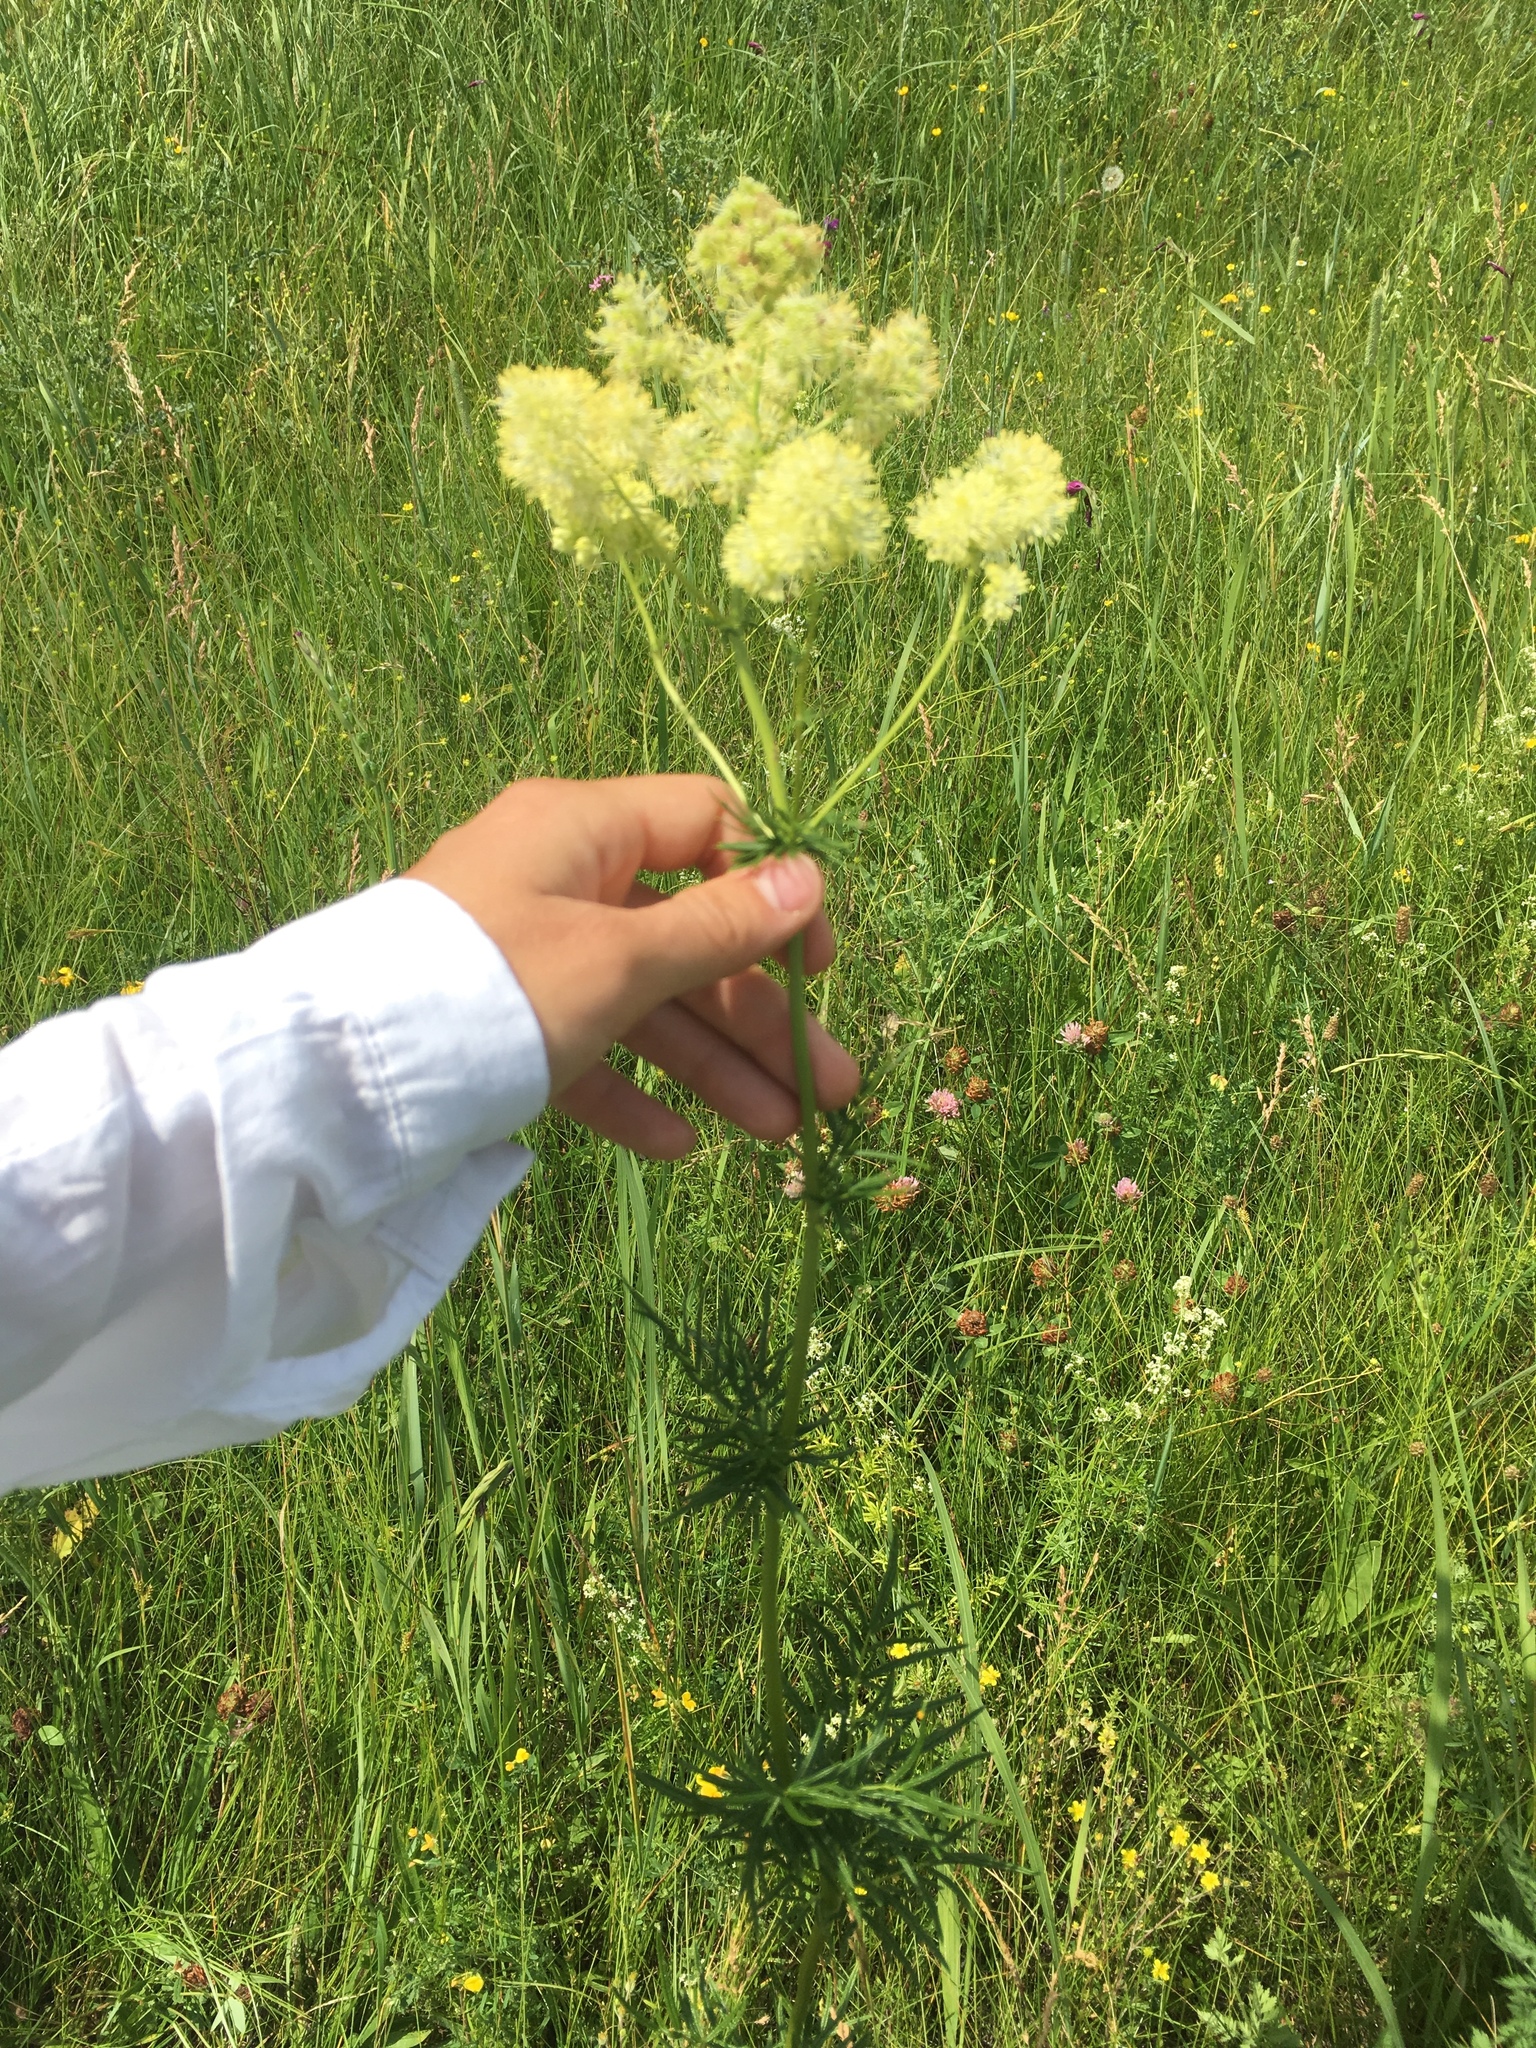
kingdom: Plantae
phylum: Tracheophyta
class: Magnoliopsida
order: Ranunculales
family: Ranunculaceae
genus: Thalictrum
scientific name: Thalictrum lucidum
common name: Shining meadow-rue
